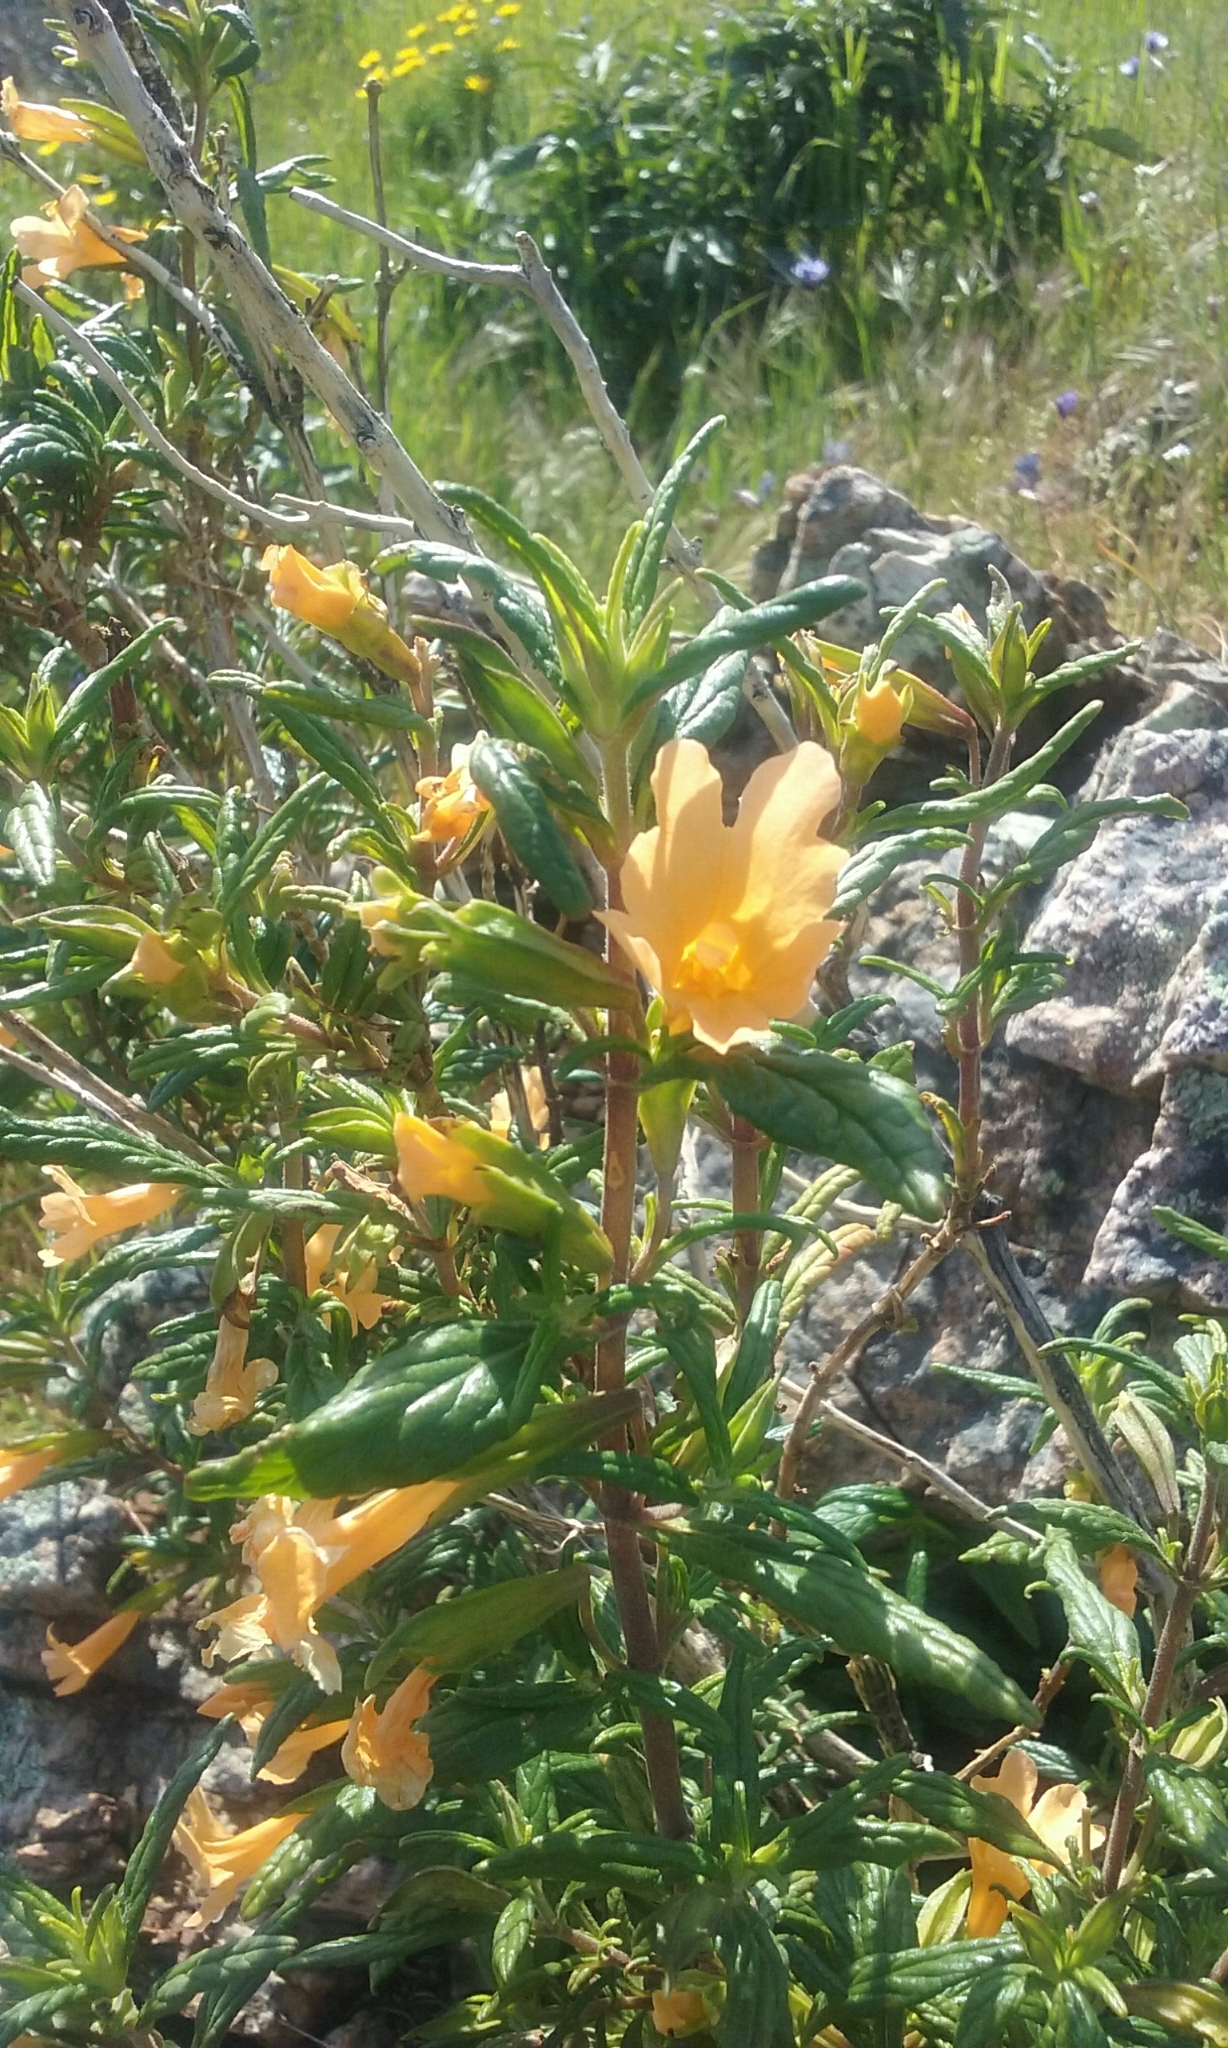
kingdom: Plantae
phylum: Tracheophyta
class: Magnoliopsida
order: Lamiales
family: Phrymaceae
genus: Diplacus
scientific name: Diplacus aurantiacus
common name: Bush monkey-flower
